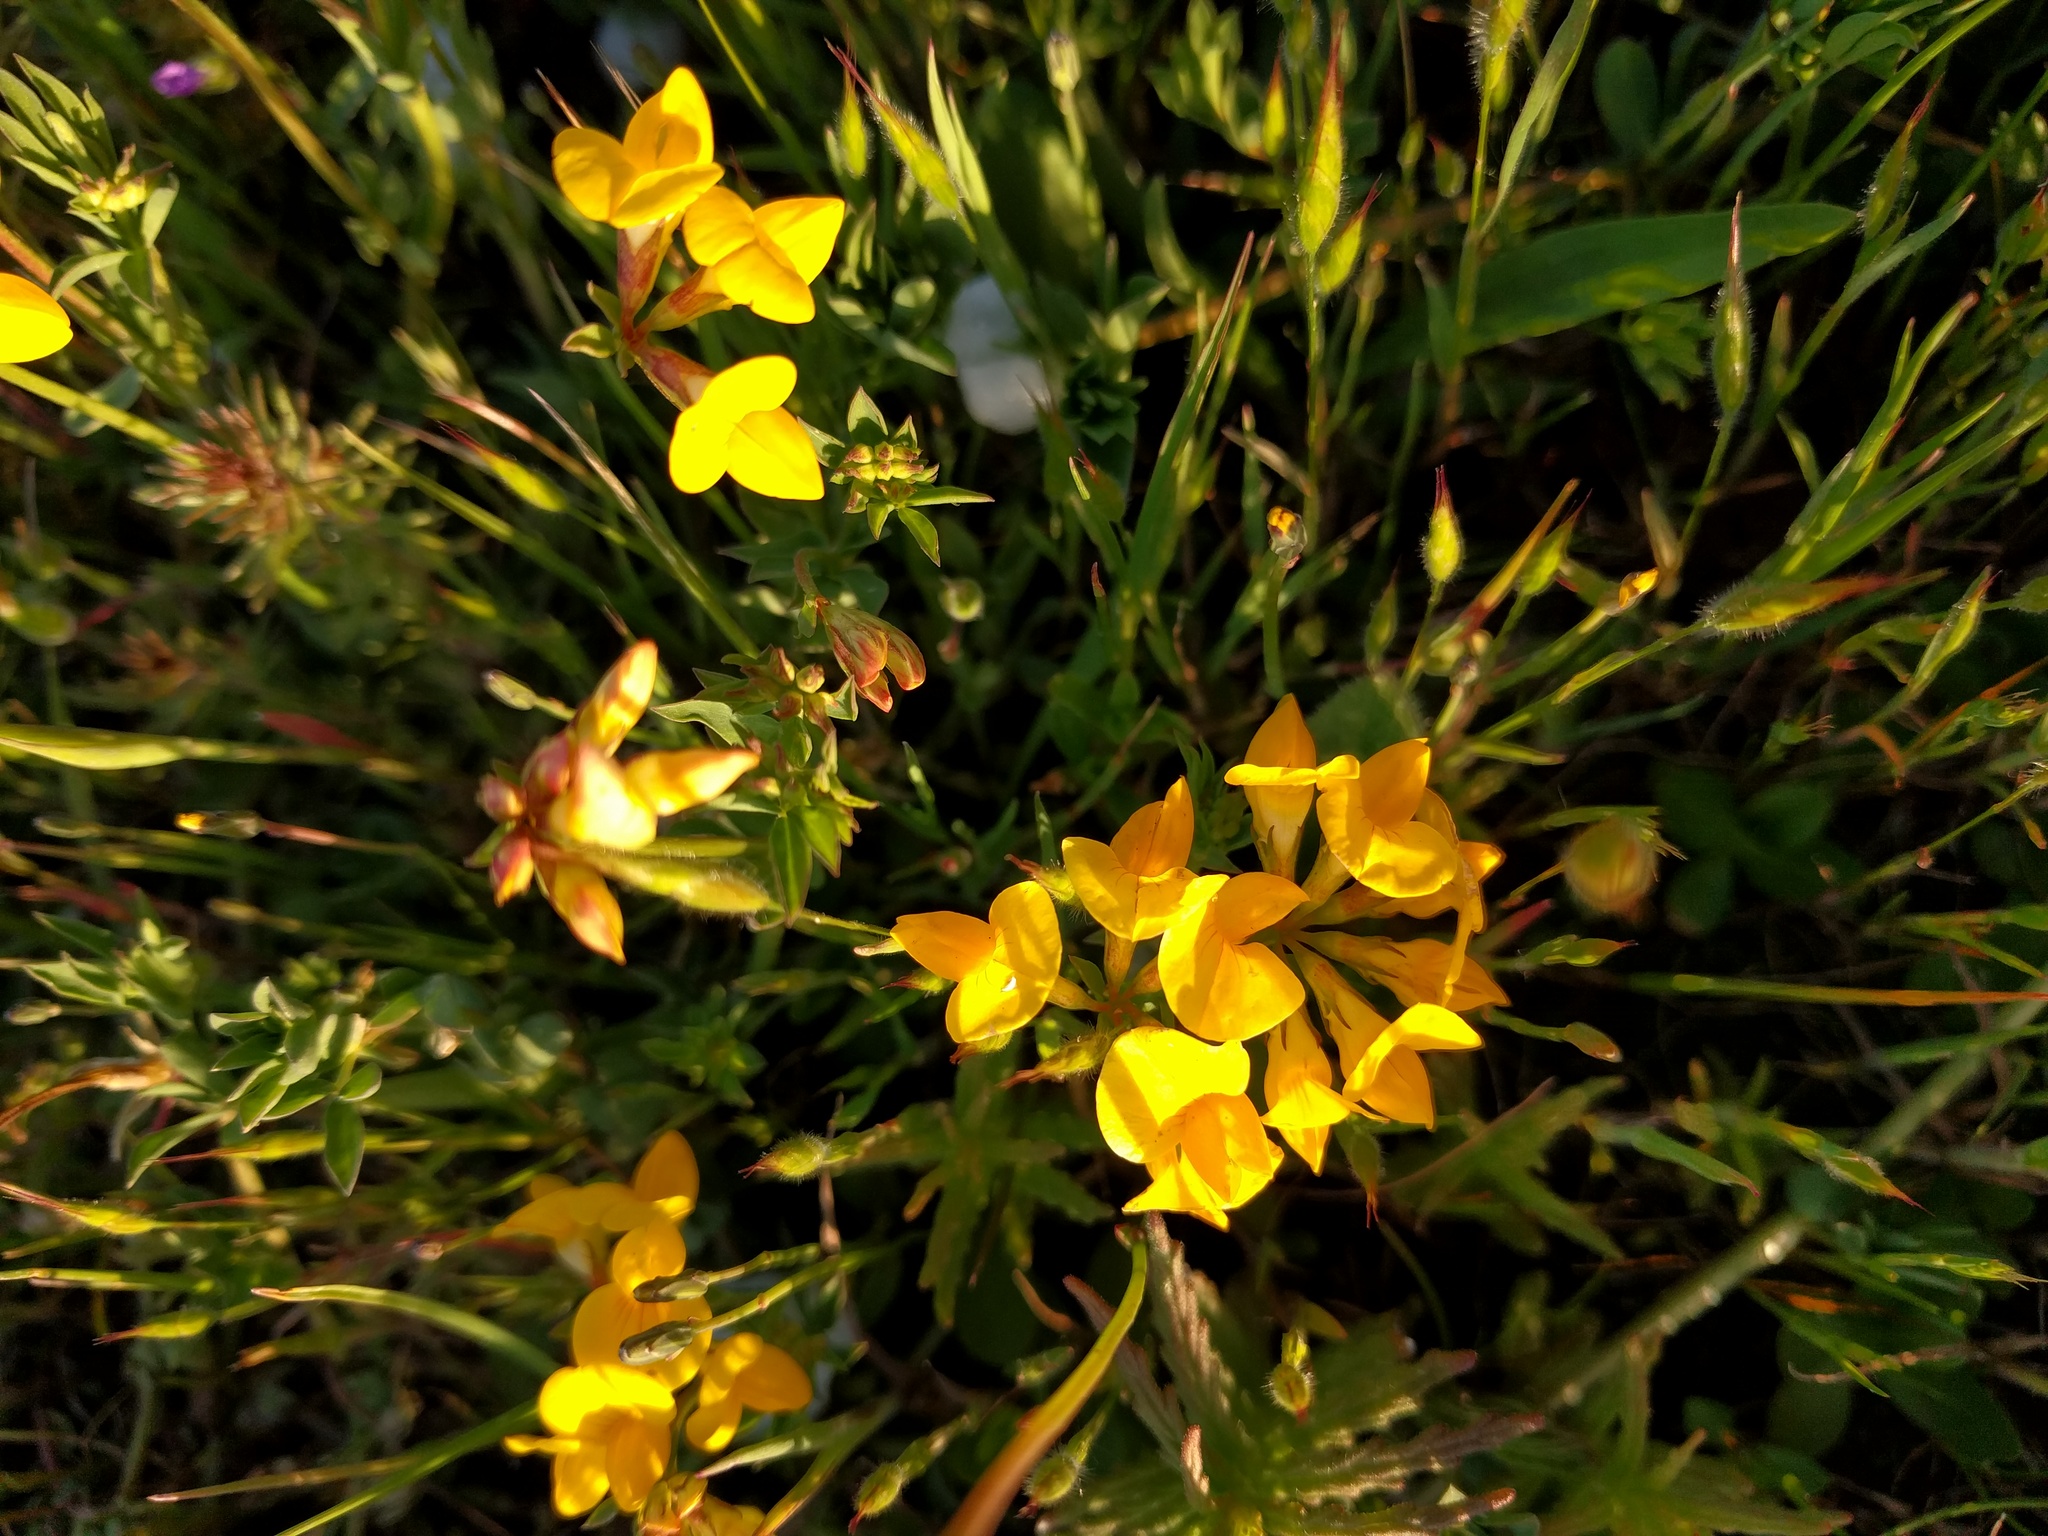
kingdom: Plantae
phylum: Tracheophyta
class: Magnoliopsida
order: Fabales
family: Fabaceae
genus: Lotus
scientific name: Lotus corniculatus
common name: Common bird's-foot-trefoil
